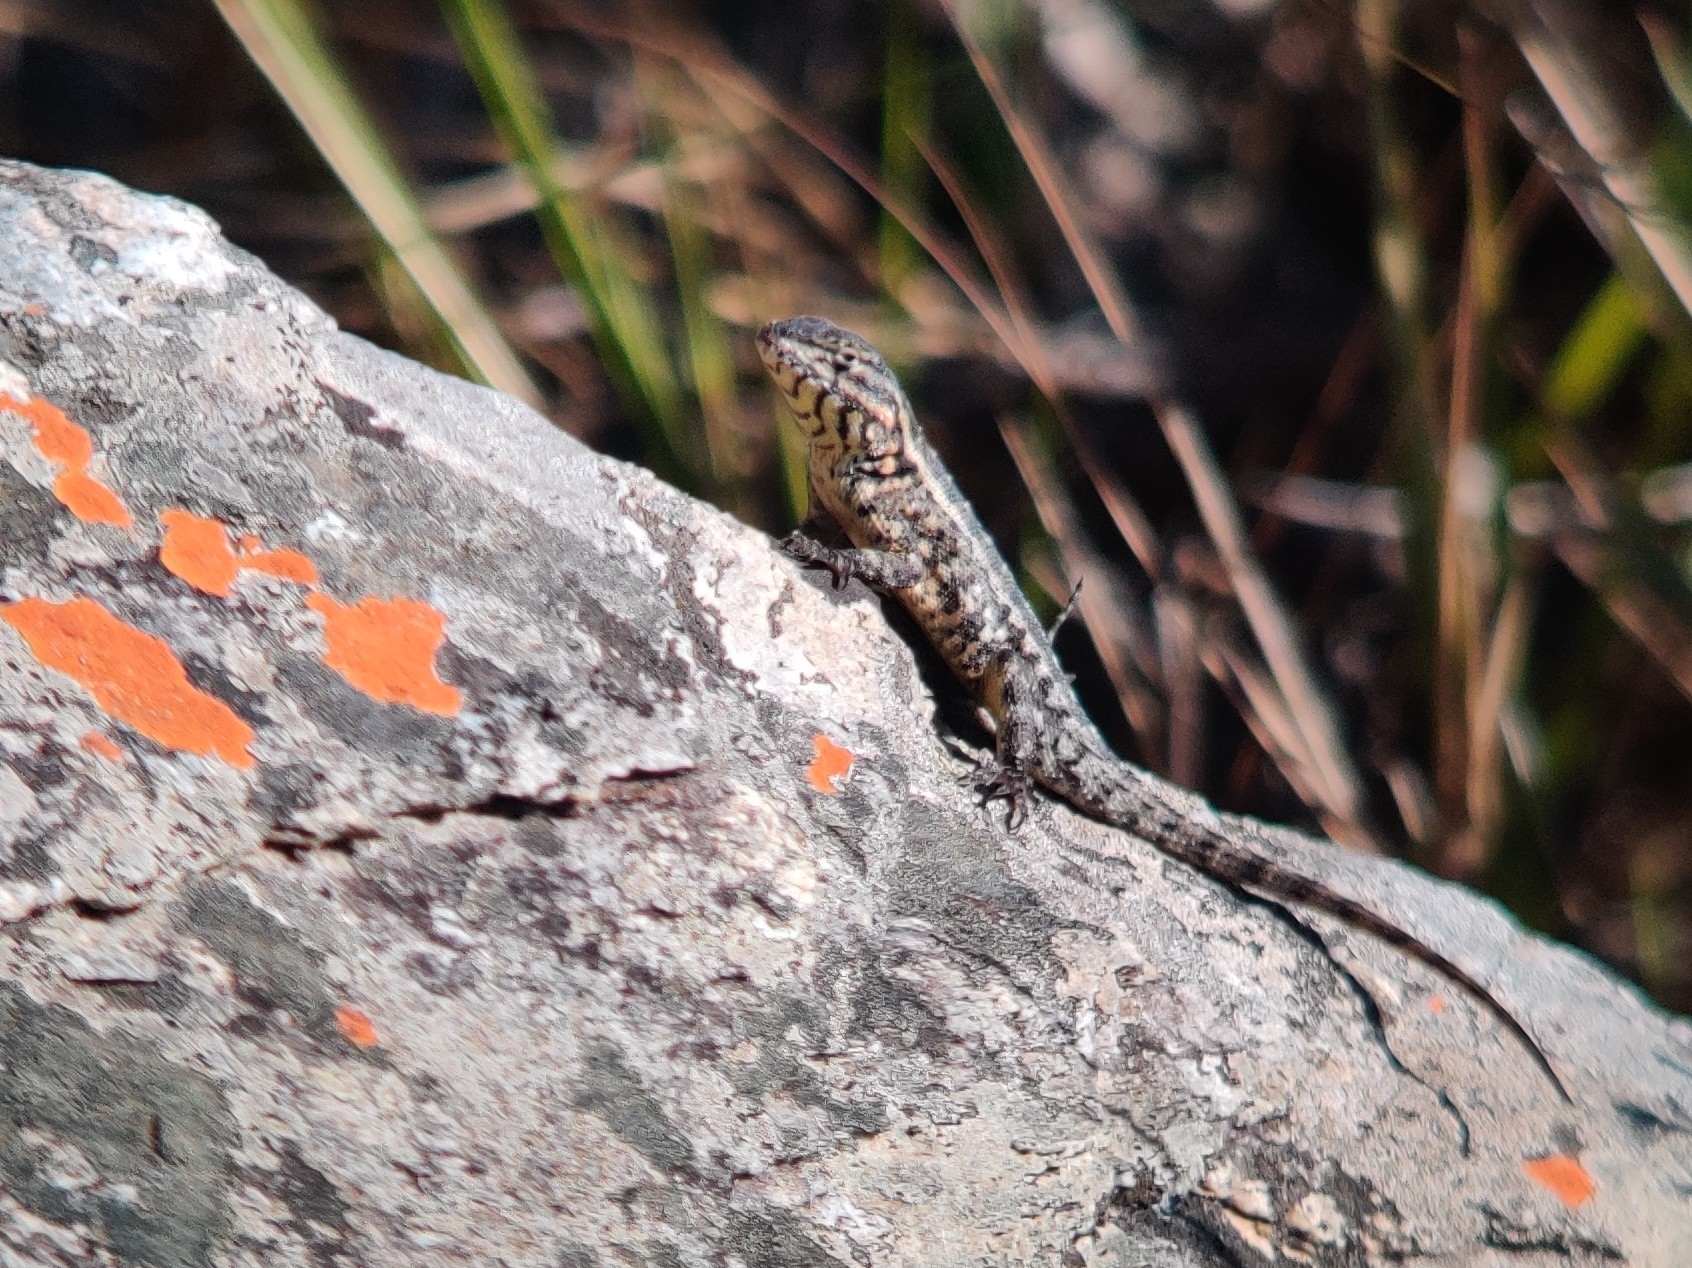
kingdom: Animalia
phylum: Chordata
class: Squamata
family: Tropiduridae
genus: Eurolophosaurus
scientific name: Eurolophosaurus nanuzae
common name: Rodrigues' lava lizard
